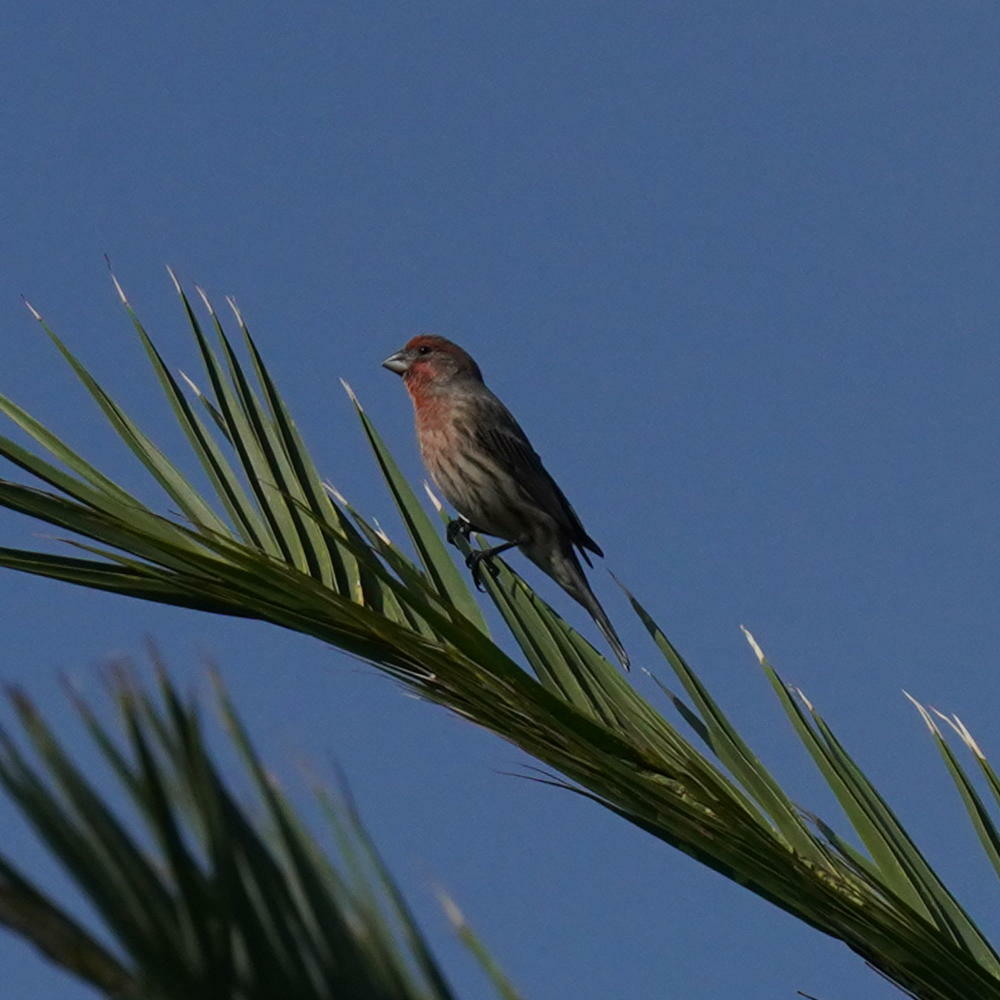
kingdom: Animalia
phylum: Chordata
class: Aves
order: Passeriformes
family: Fringillidae
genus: Haemorhous
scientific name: Haemorhous mexicanus
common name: House finch
